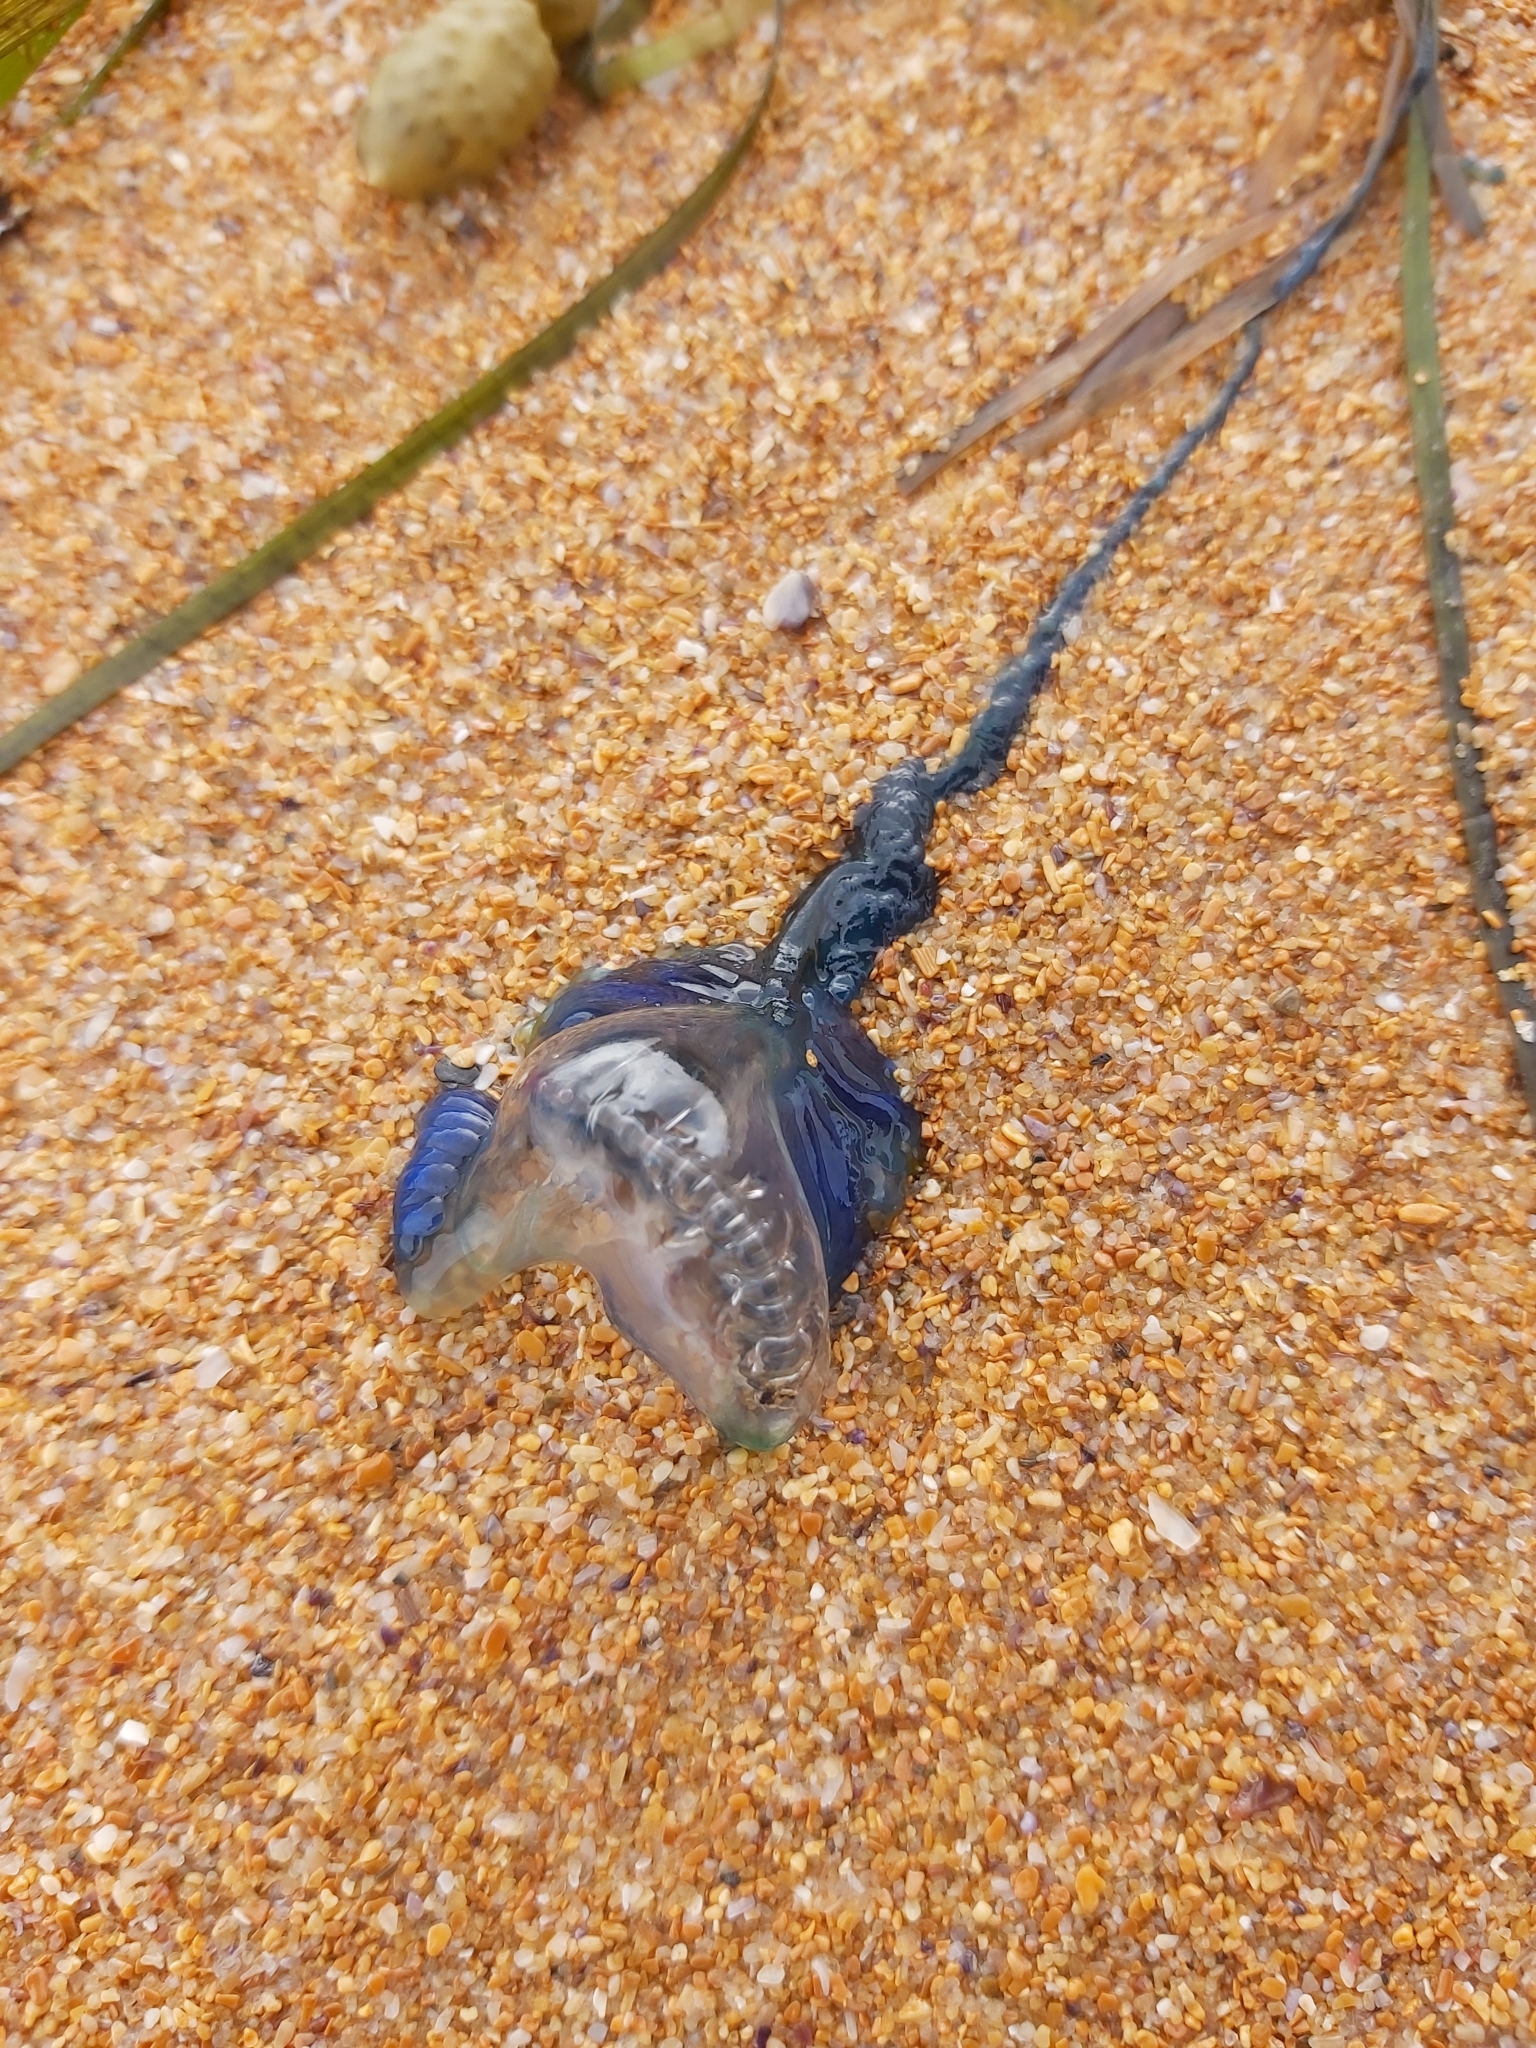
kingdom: Animalia
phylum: Cnidaria
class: Hydrozoa
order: Siphonophorae
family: Physaliidae
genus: Physalia
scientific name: Physalia physalis
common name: Portuguese man-of-war
